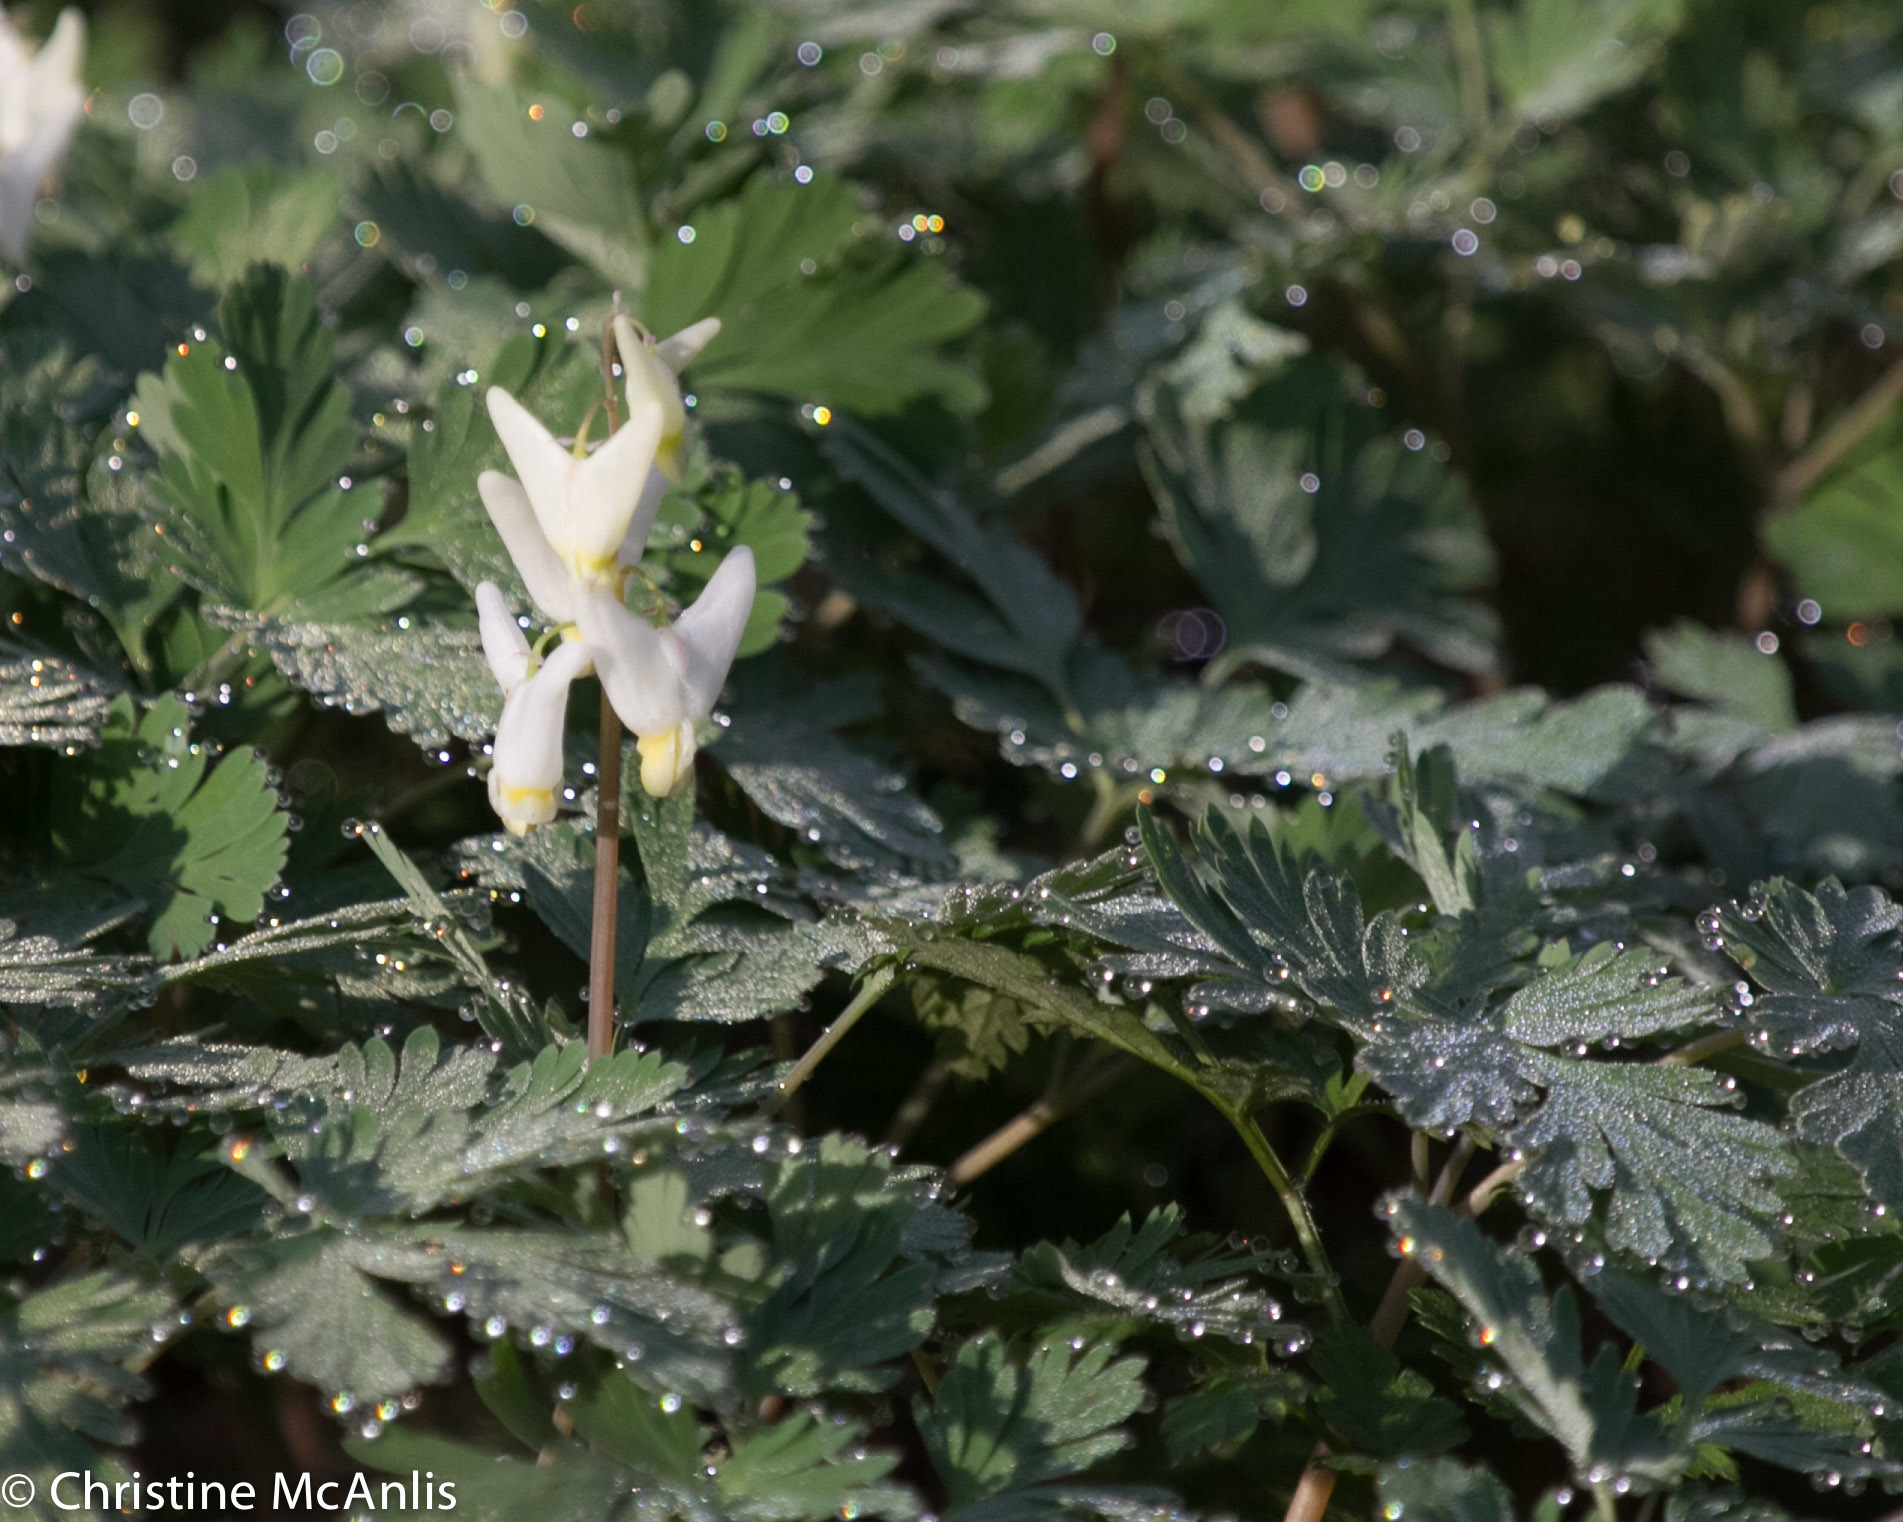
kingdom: Plantae
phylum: Tracheophyta
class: Magnoliopsida
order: Ranunculales
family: Papaveraceae
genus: Dicentra
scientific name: Dicentra cucullaria
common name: Dutchman's breeches
